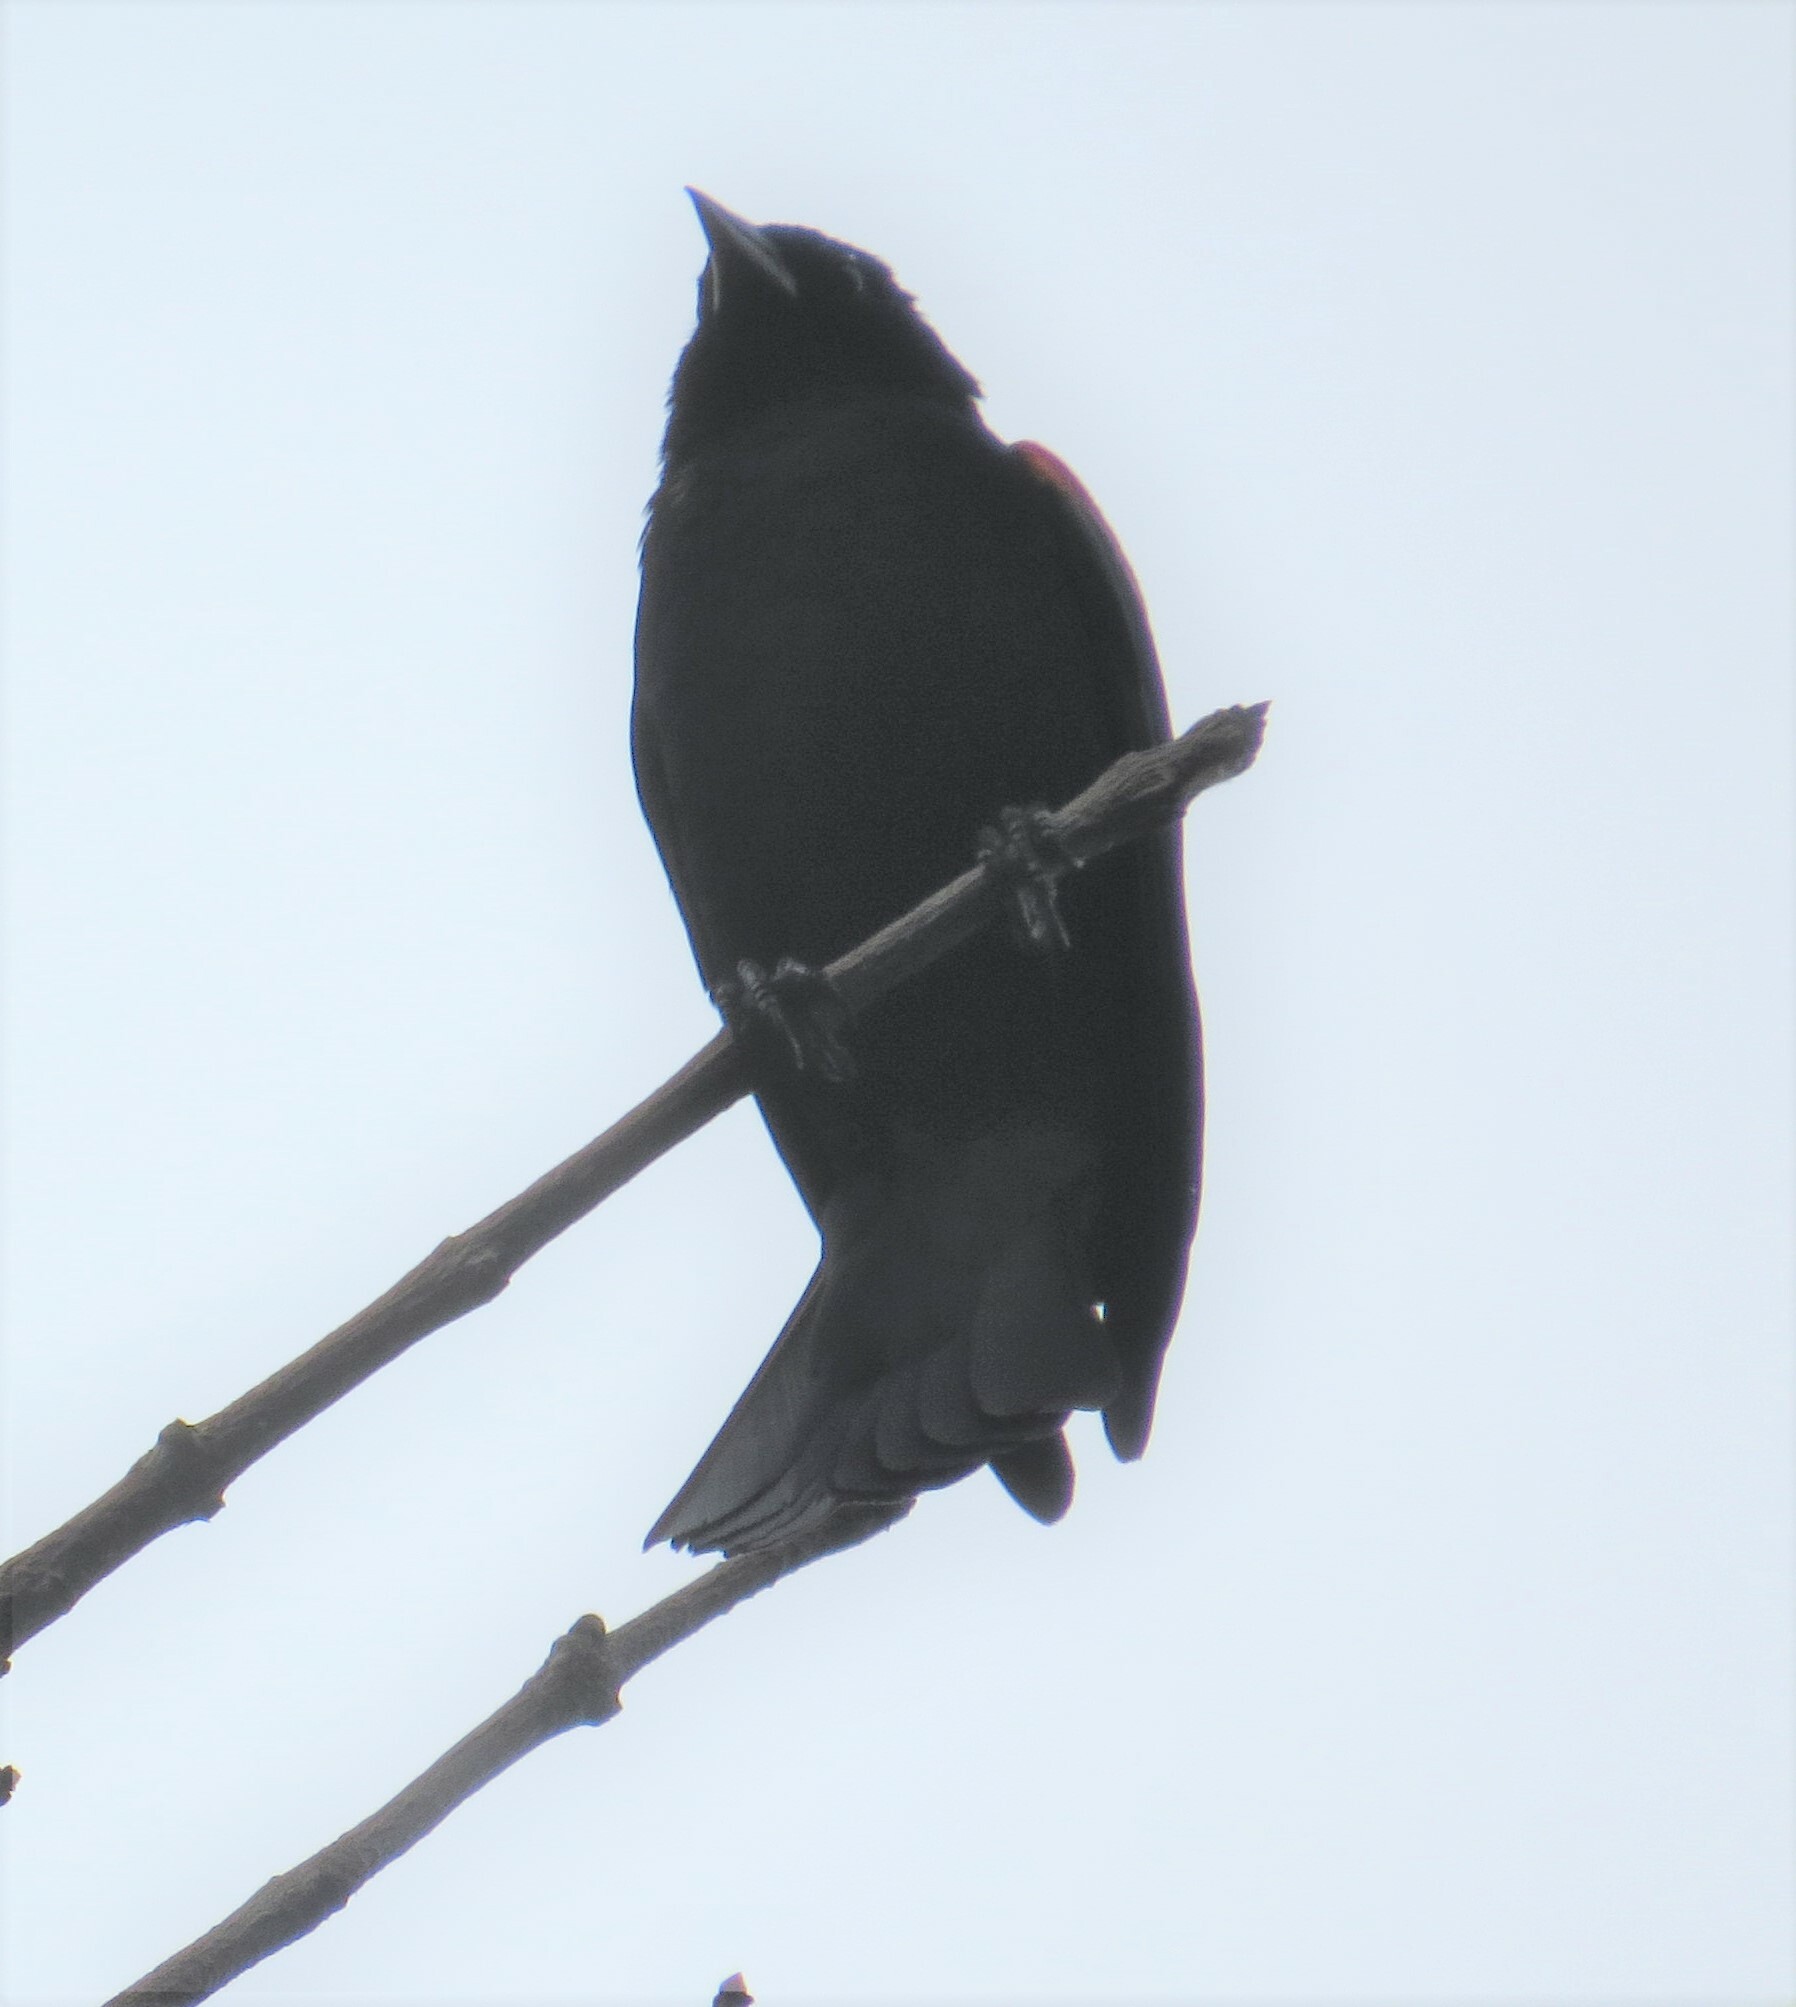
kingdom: Animalia
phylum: Chordata
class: Aves
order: Passeriformes
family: Icteridae
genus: Agelaius
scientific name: Agelaius phoeniceus
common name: Red-winged blackbird
